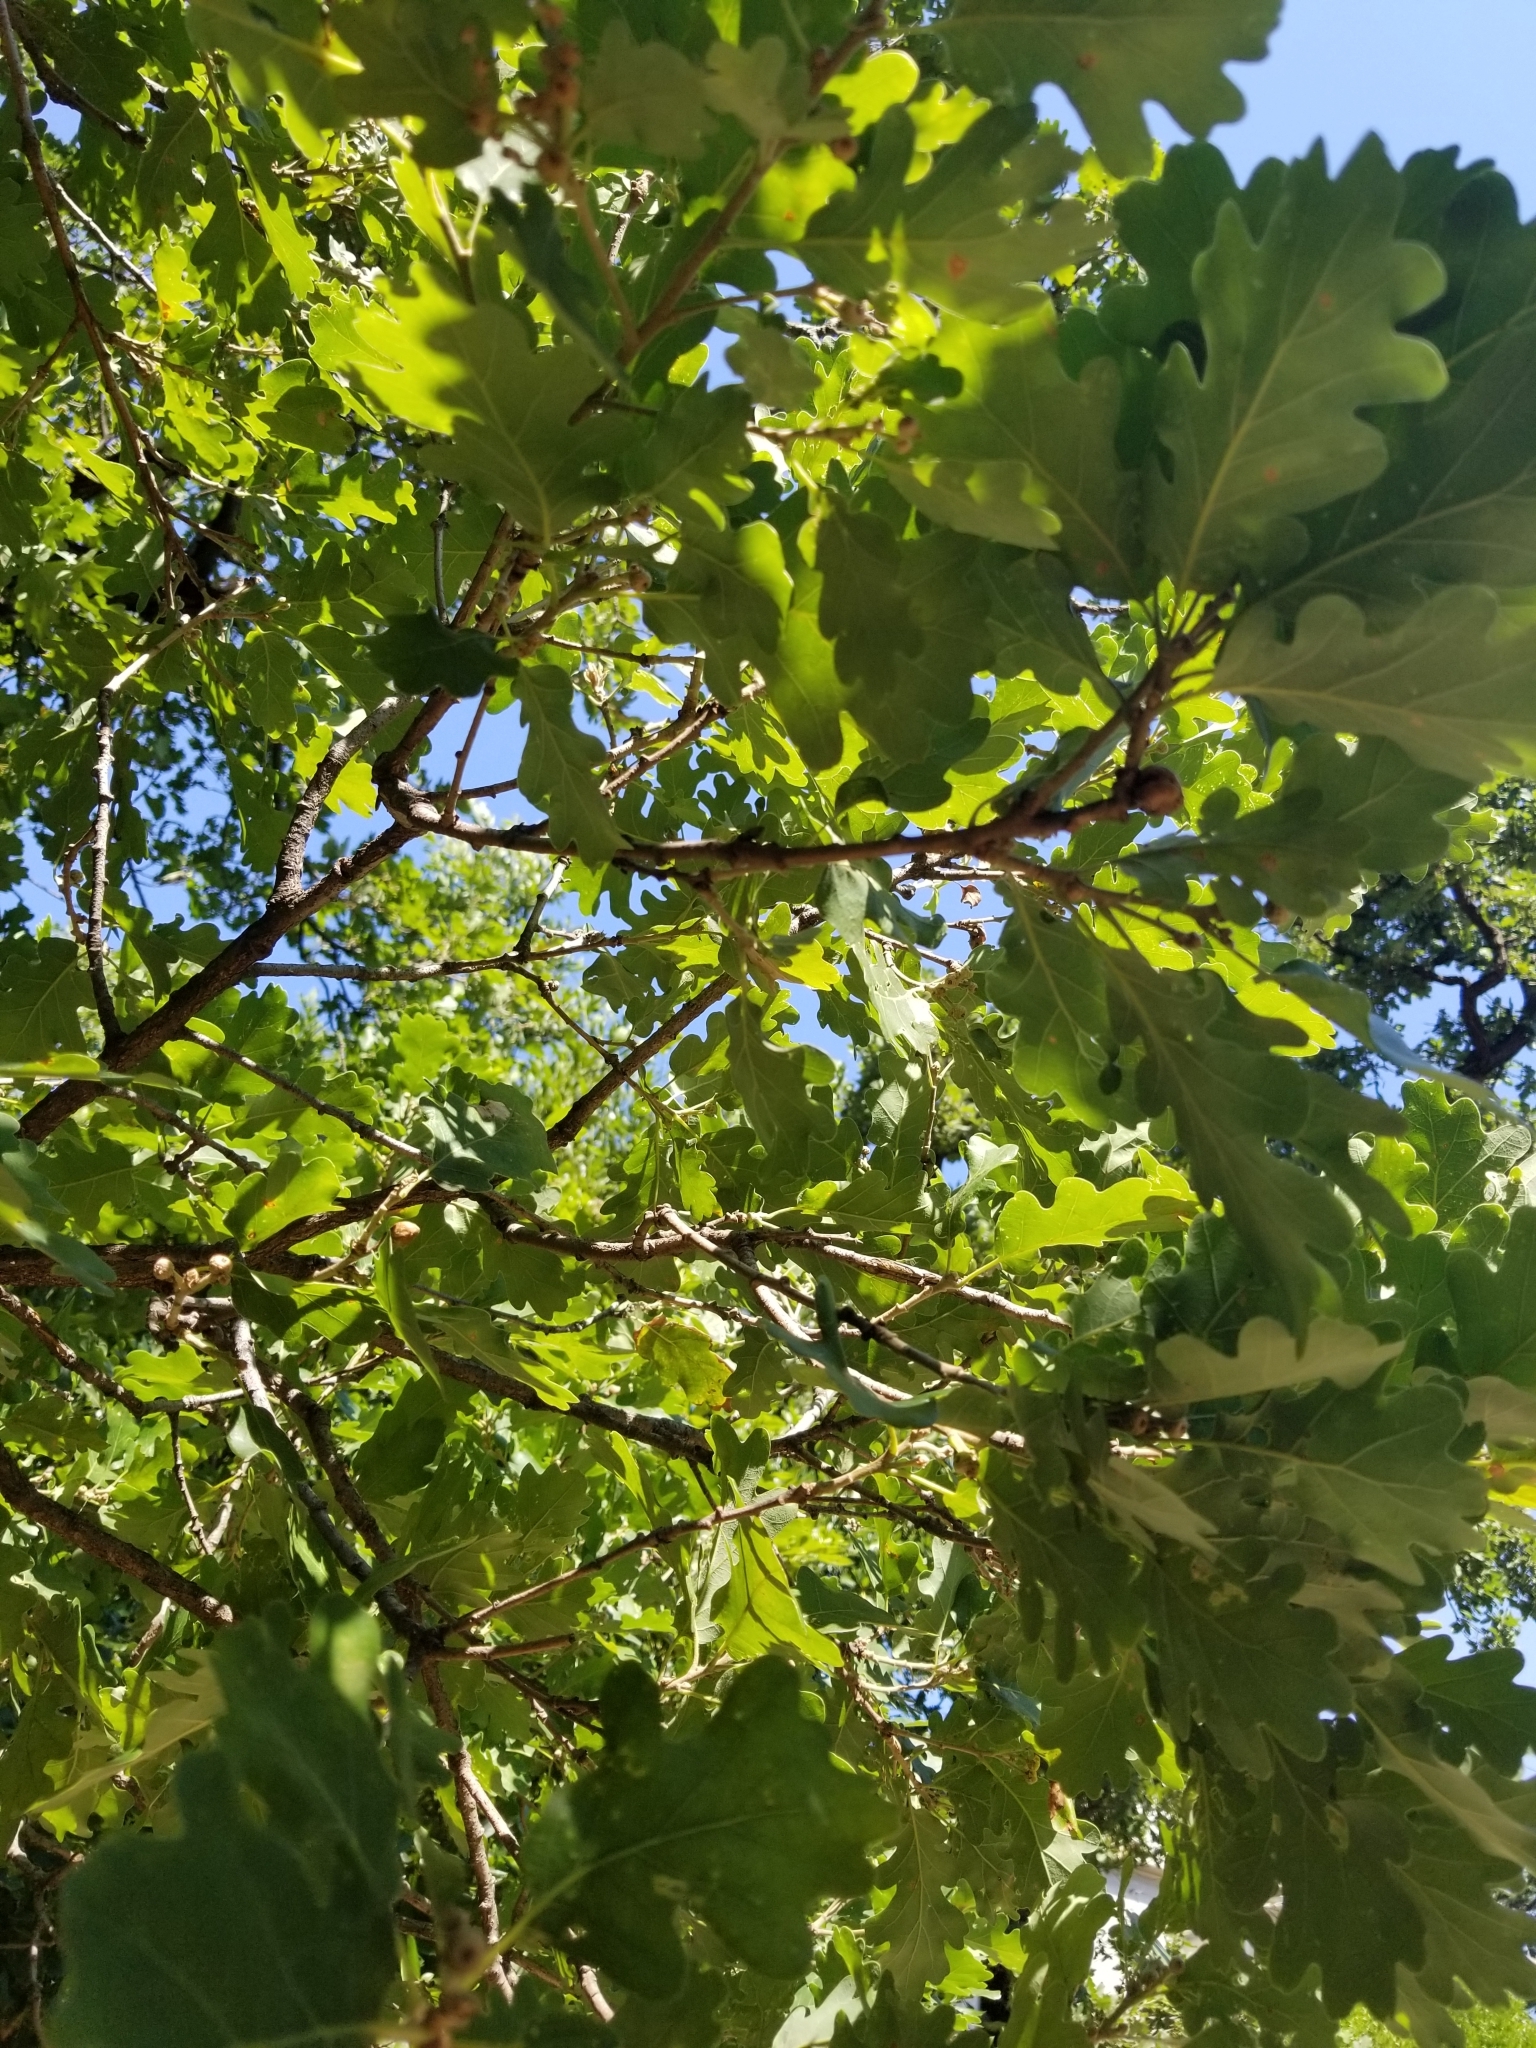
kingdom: Plantae
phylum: Tracheophyta
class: Magnoliopsida
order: Fagales
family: Fagaceae
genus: Quercus
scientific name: Quercus pubescens
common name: Downy oak
